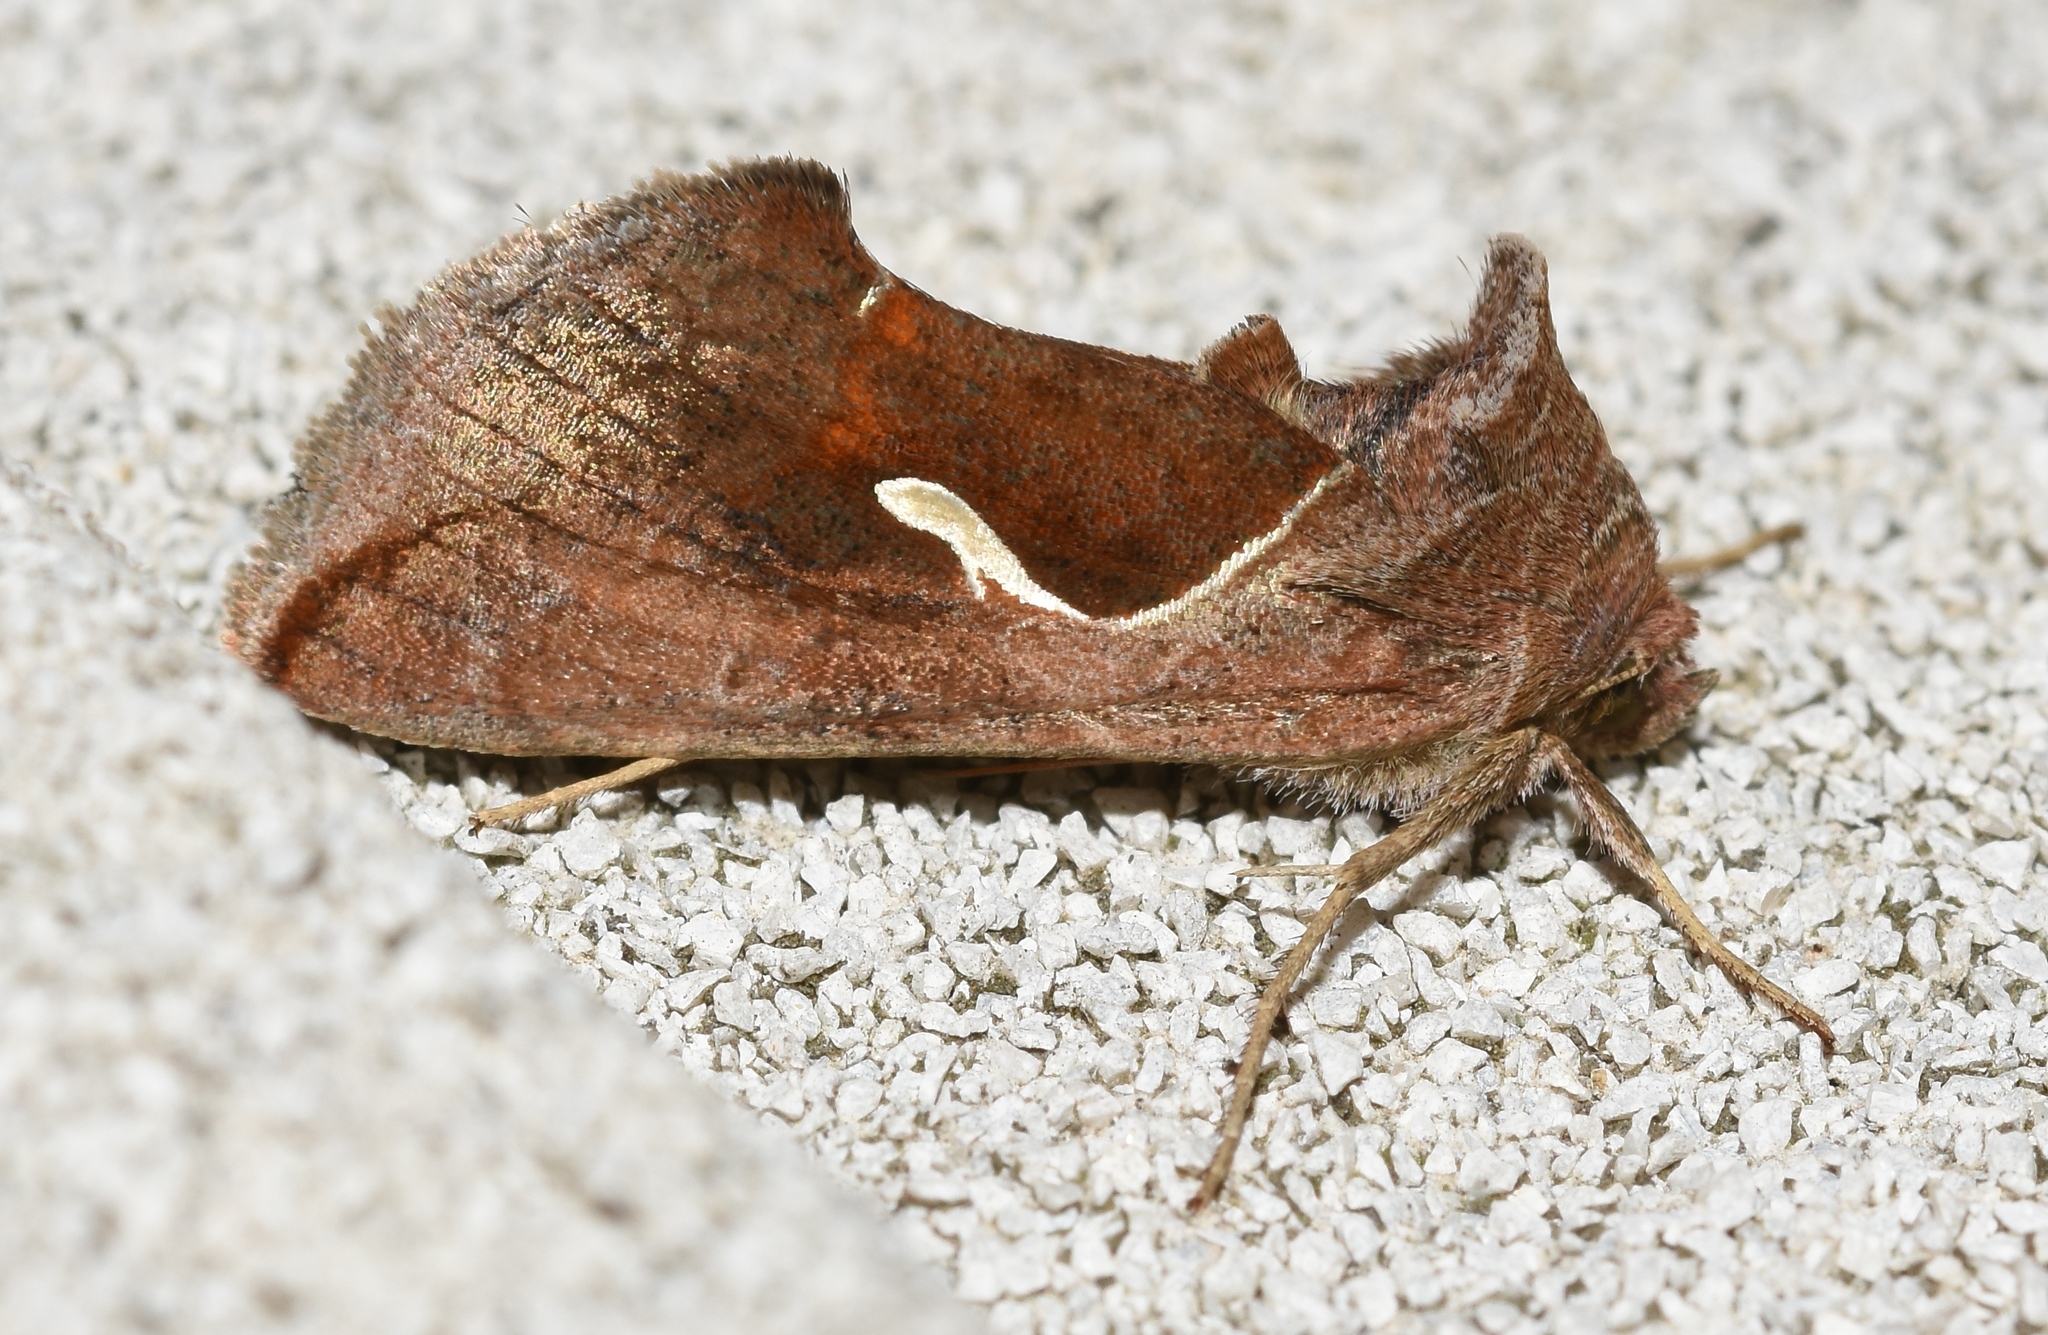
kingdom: Animalia
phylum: Arthropoda
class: Insecta
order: Lepidoptera
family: Noctuidae
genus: Anagrapha
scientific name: Anagrapha falcifera
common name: Celery looper
